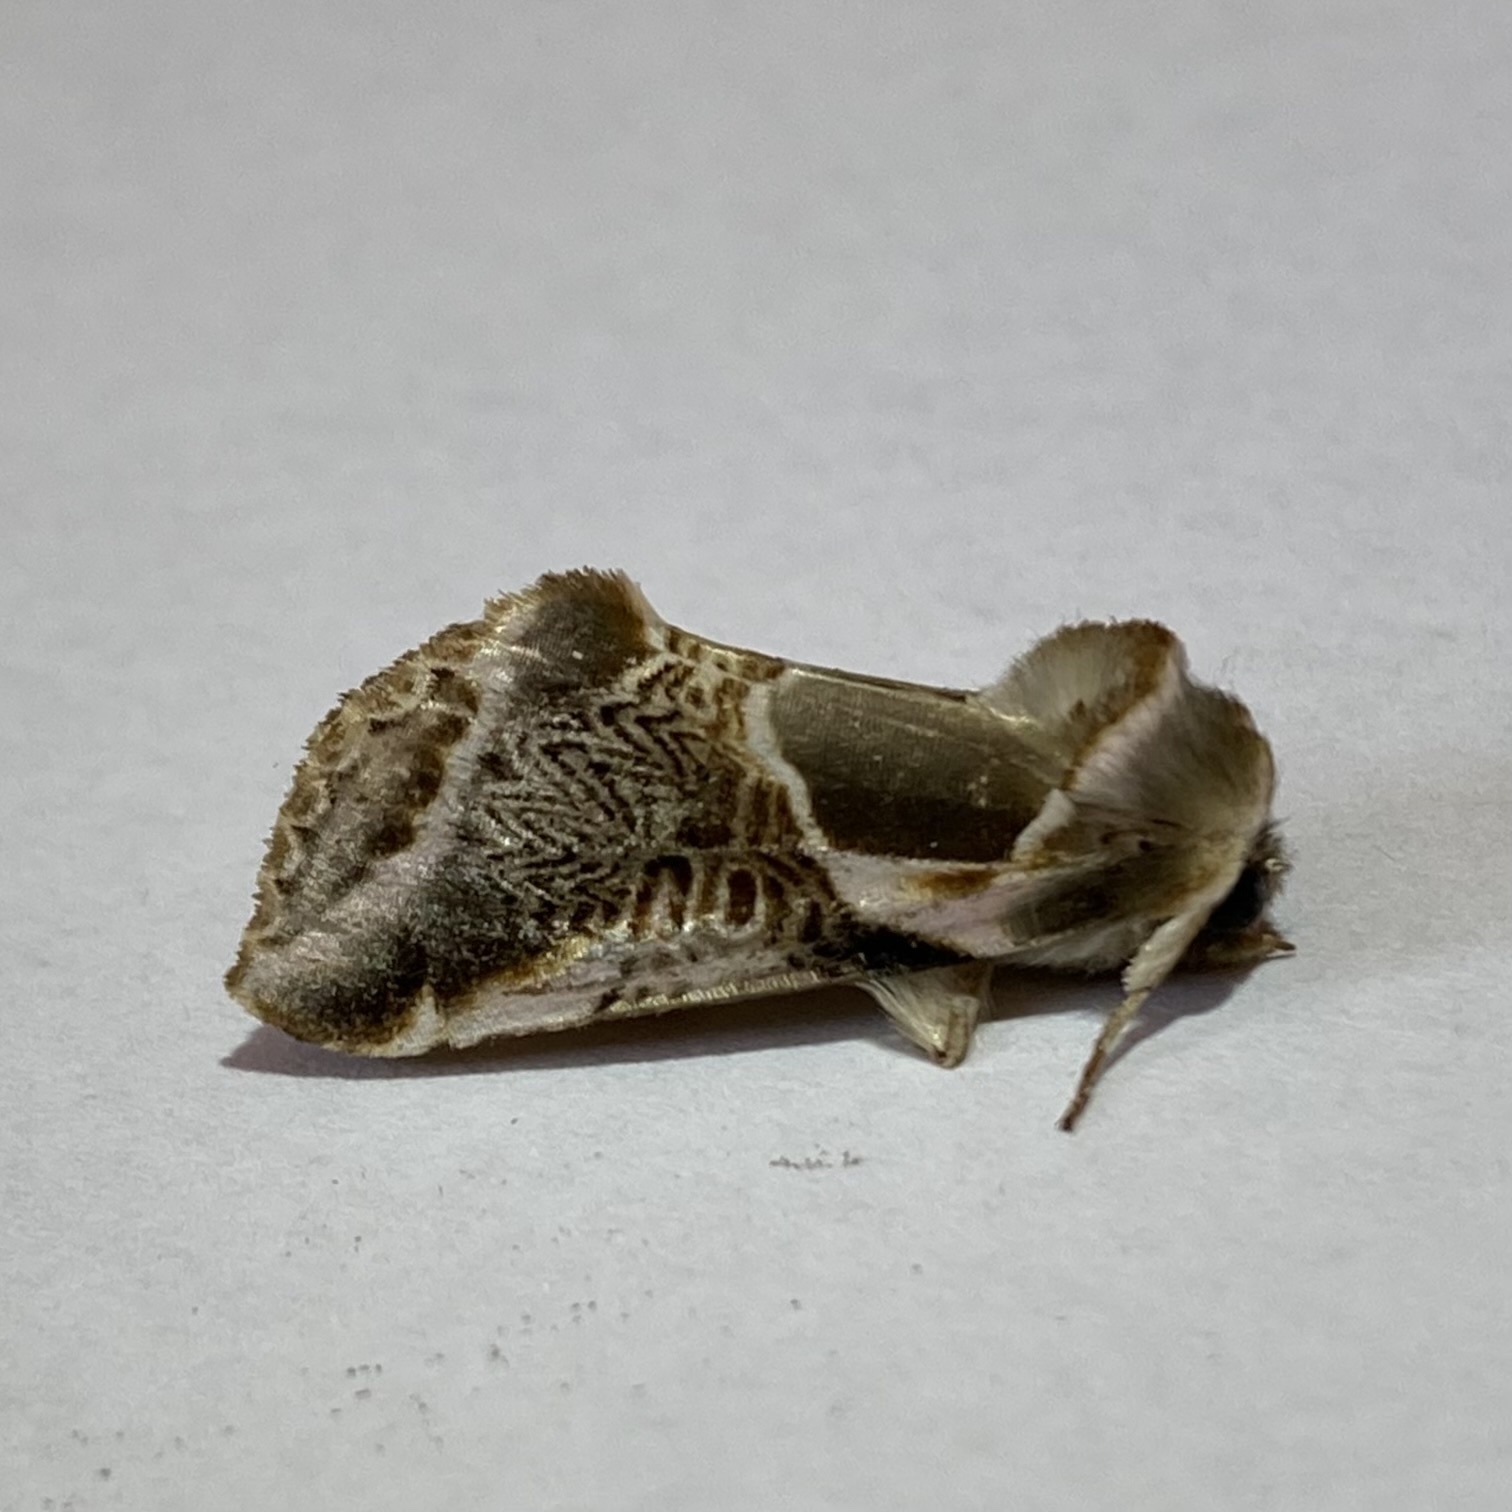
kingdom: Animalia
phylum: Arthropoda
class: Insecta
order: Lepidoptera
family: Drepanidae
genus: Habrosyne
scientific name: Habrosyne scripta
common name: Lettered habrosyne moth
